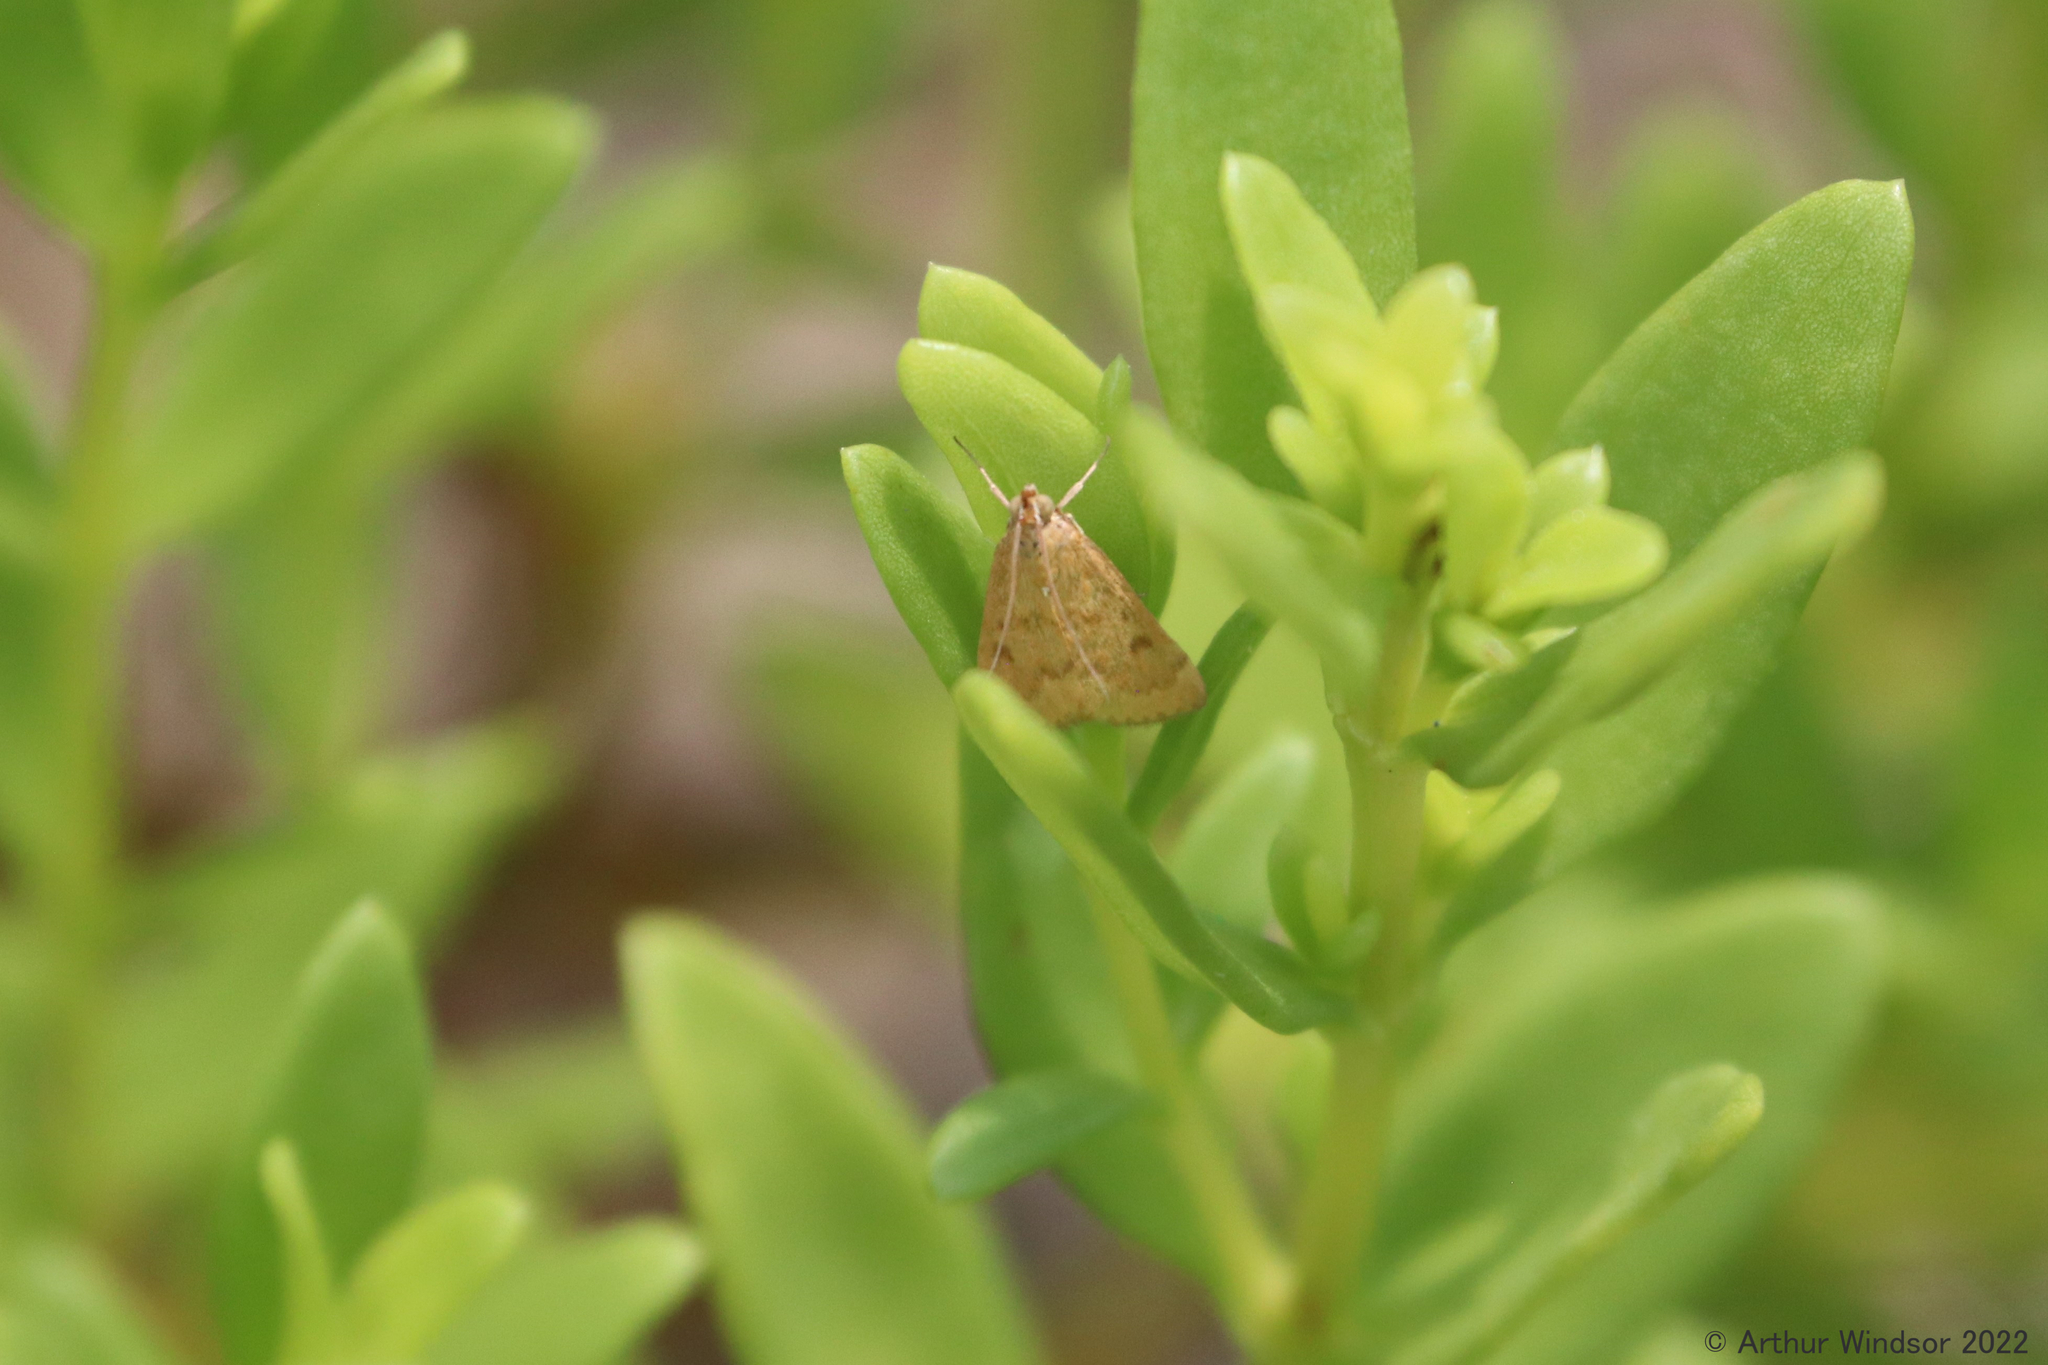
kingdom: Animalia
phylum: Arthropoda
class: Insecta
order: Lepidoptera
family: Crambidae
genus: Achyra
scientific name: Achyra rantalis
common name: Garden webworm
